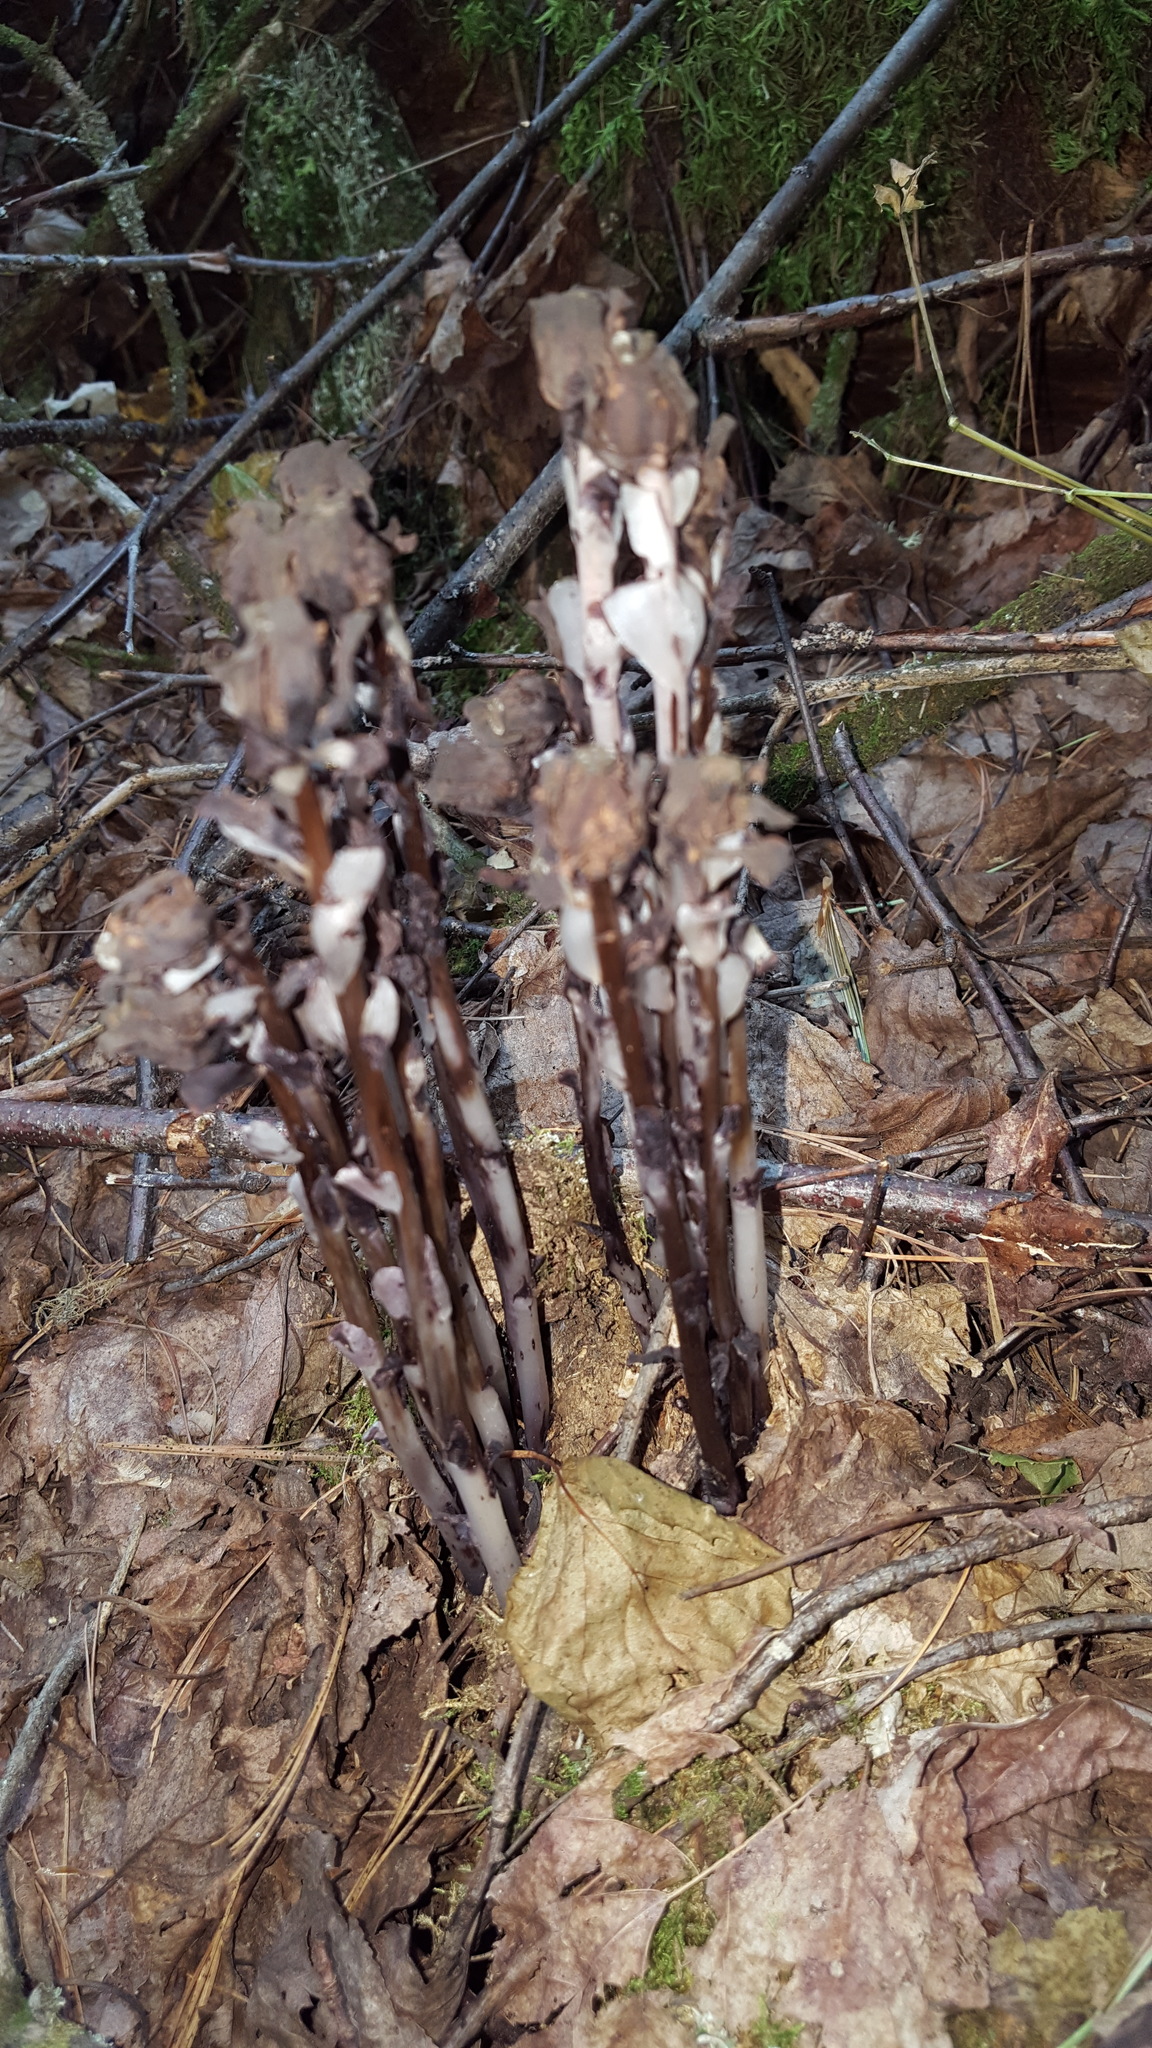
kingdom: Plantae
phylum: Tracheophyta
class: Magnoliopsida
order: Ericales
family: Ericaceae
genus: Monotropa
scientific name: Monotropa uniflora
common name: Convulsion root
